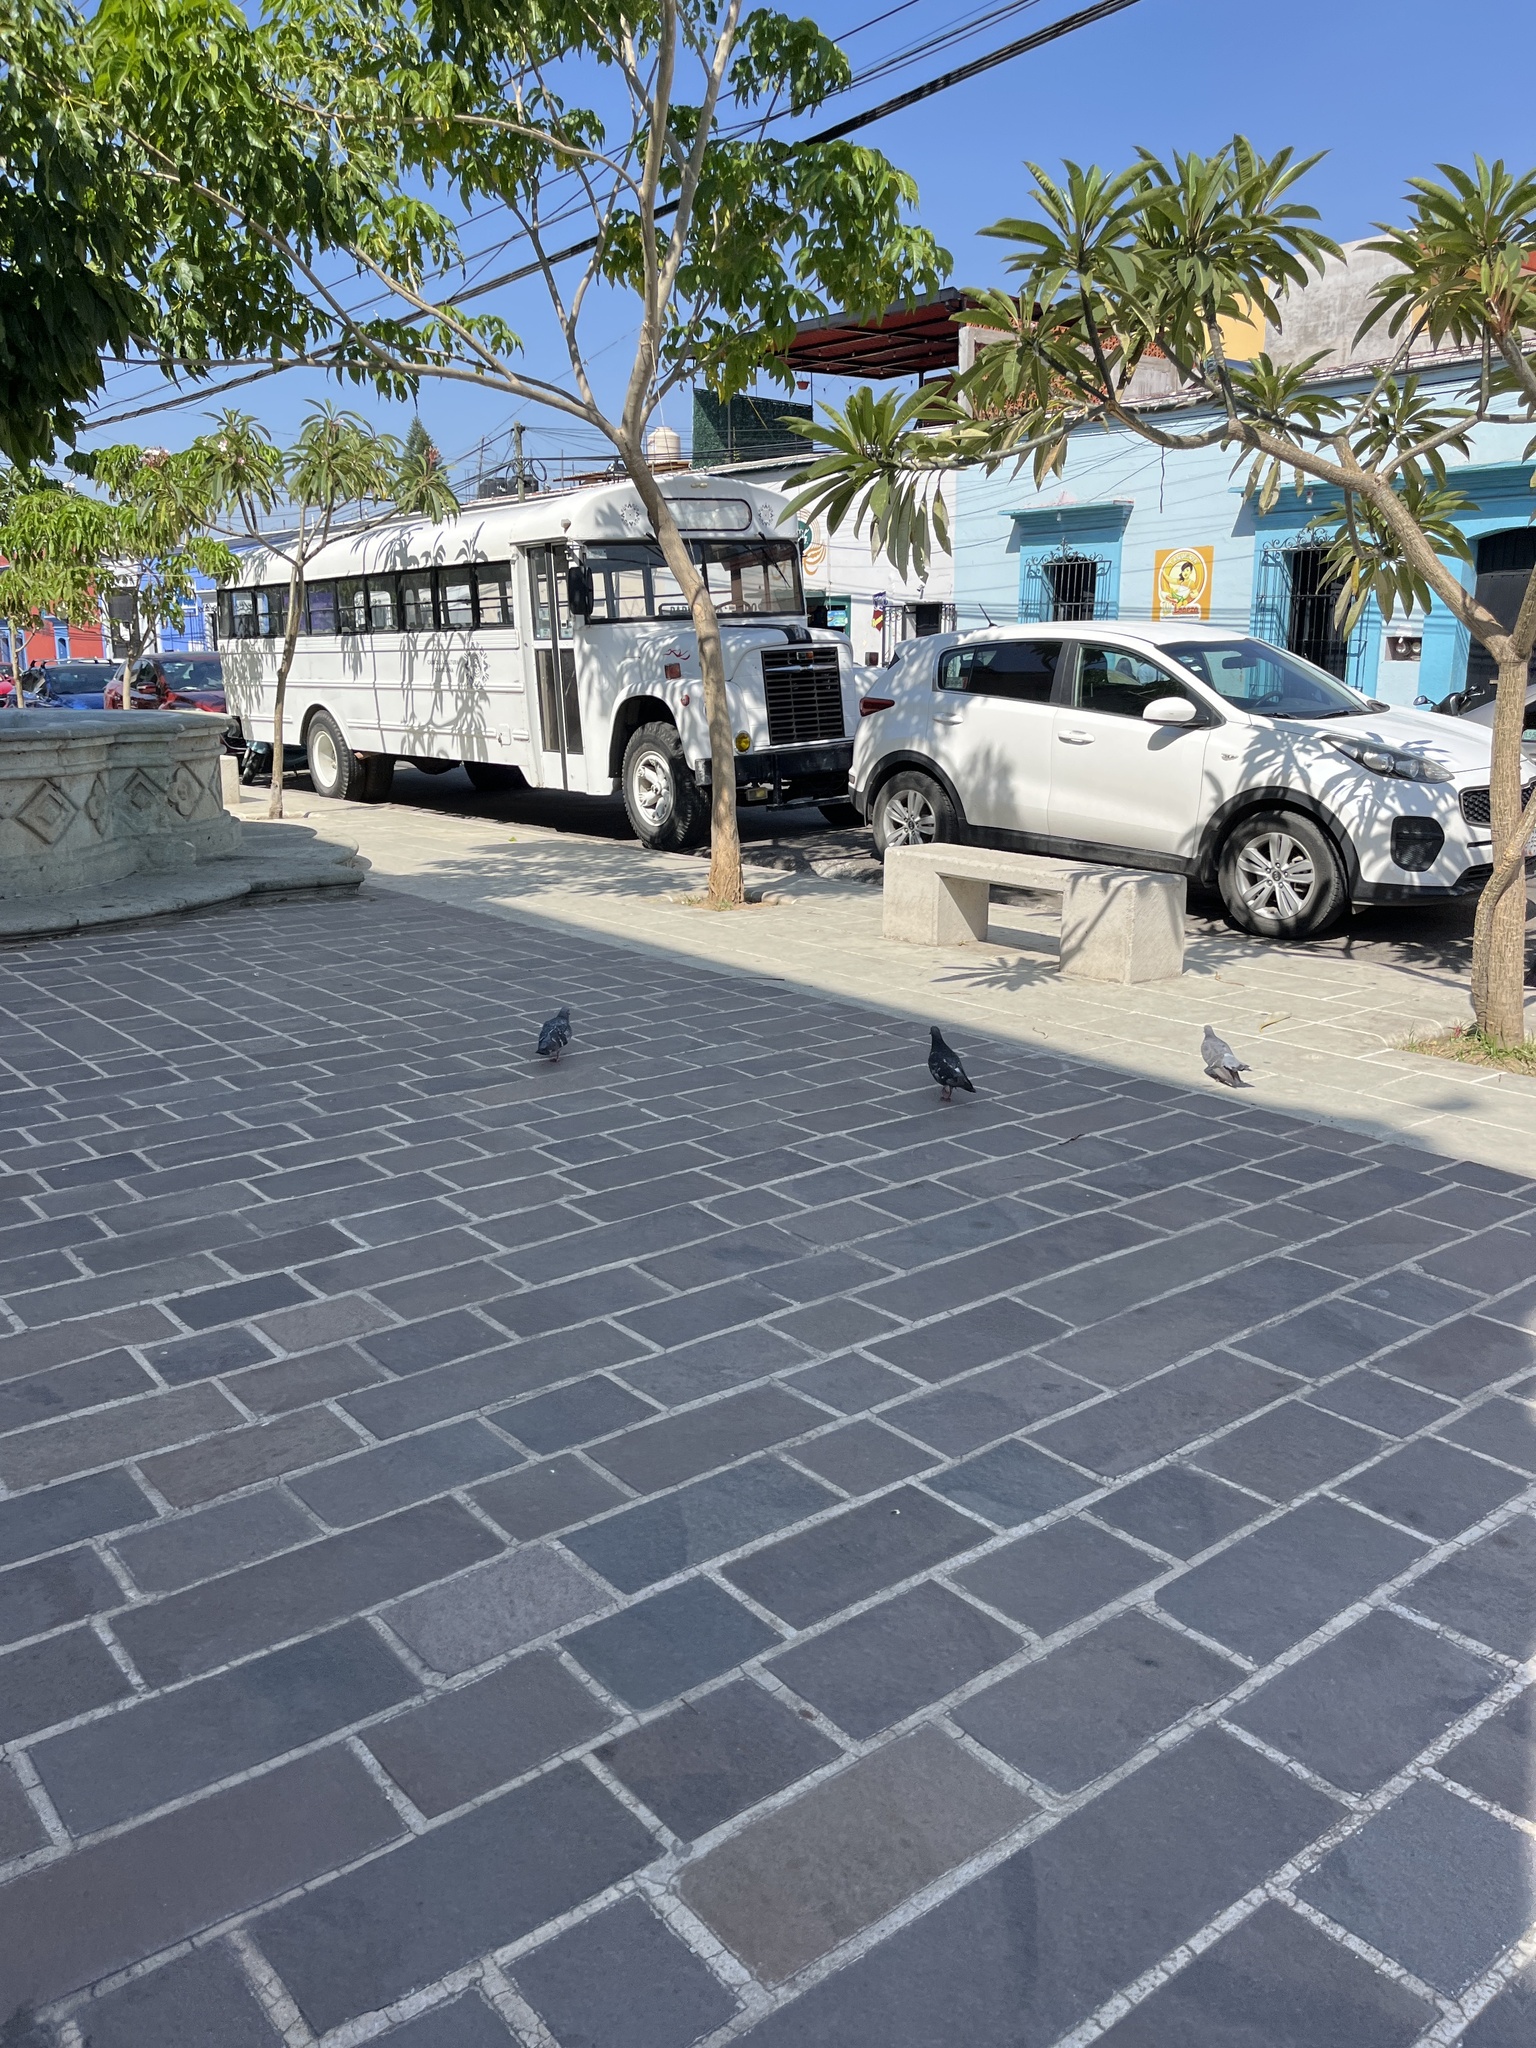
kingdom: Animalia
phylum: Chordata
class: Aves
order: Columbiformes
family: Columbidae
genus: Columba
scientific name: Columba livia
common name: Rock pigeon
